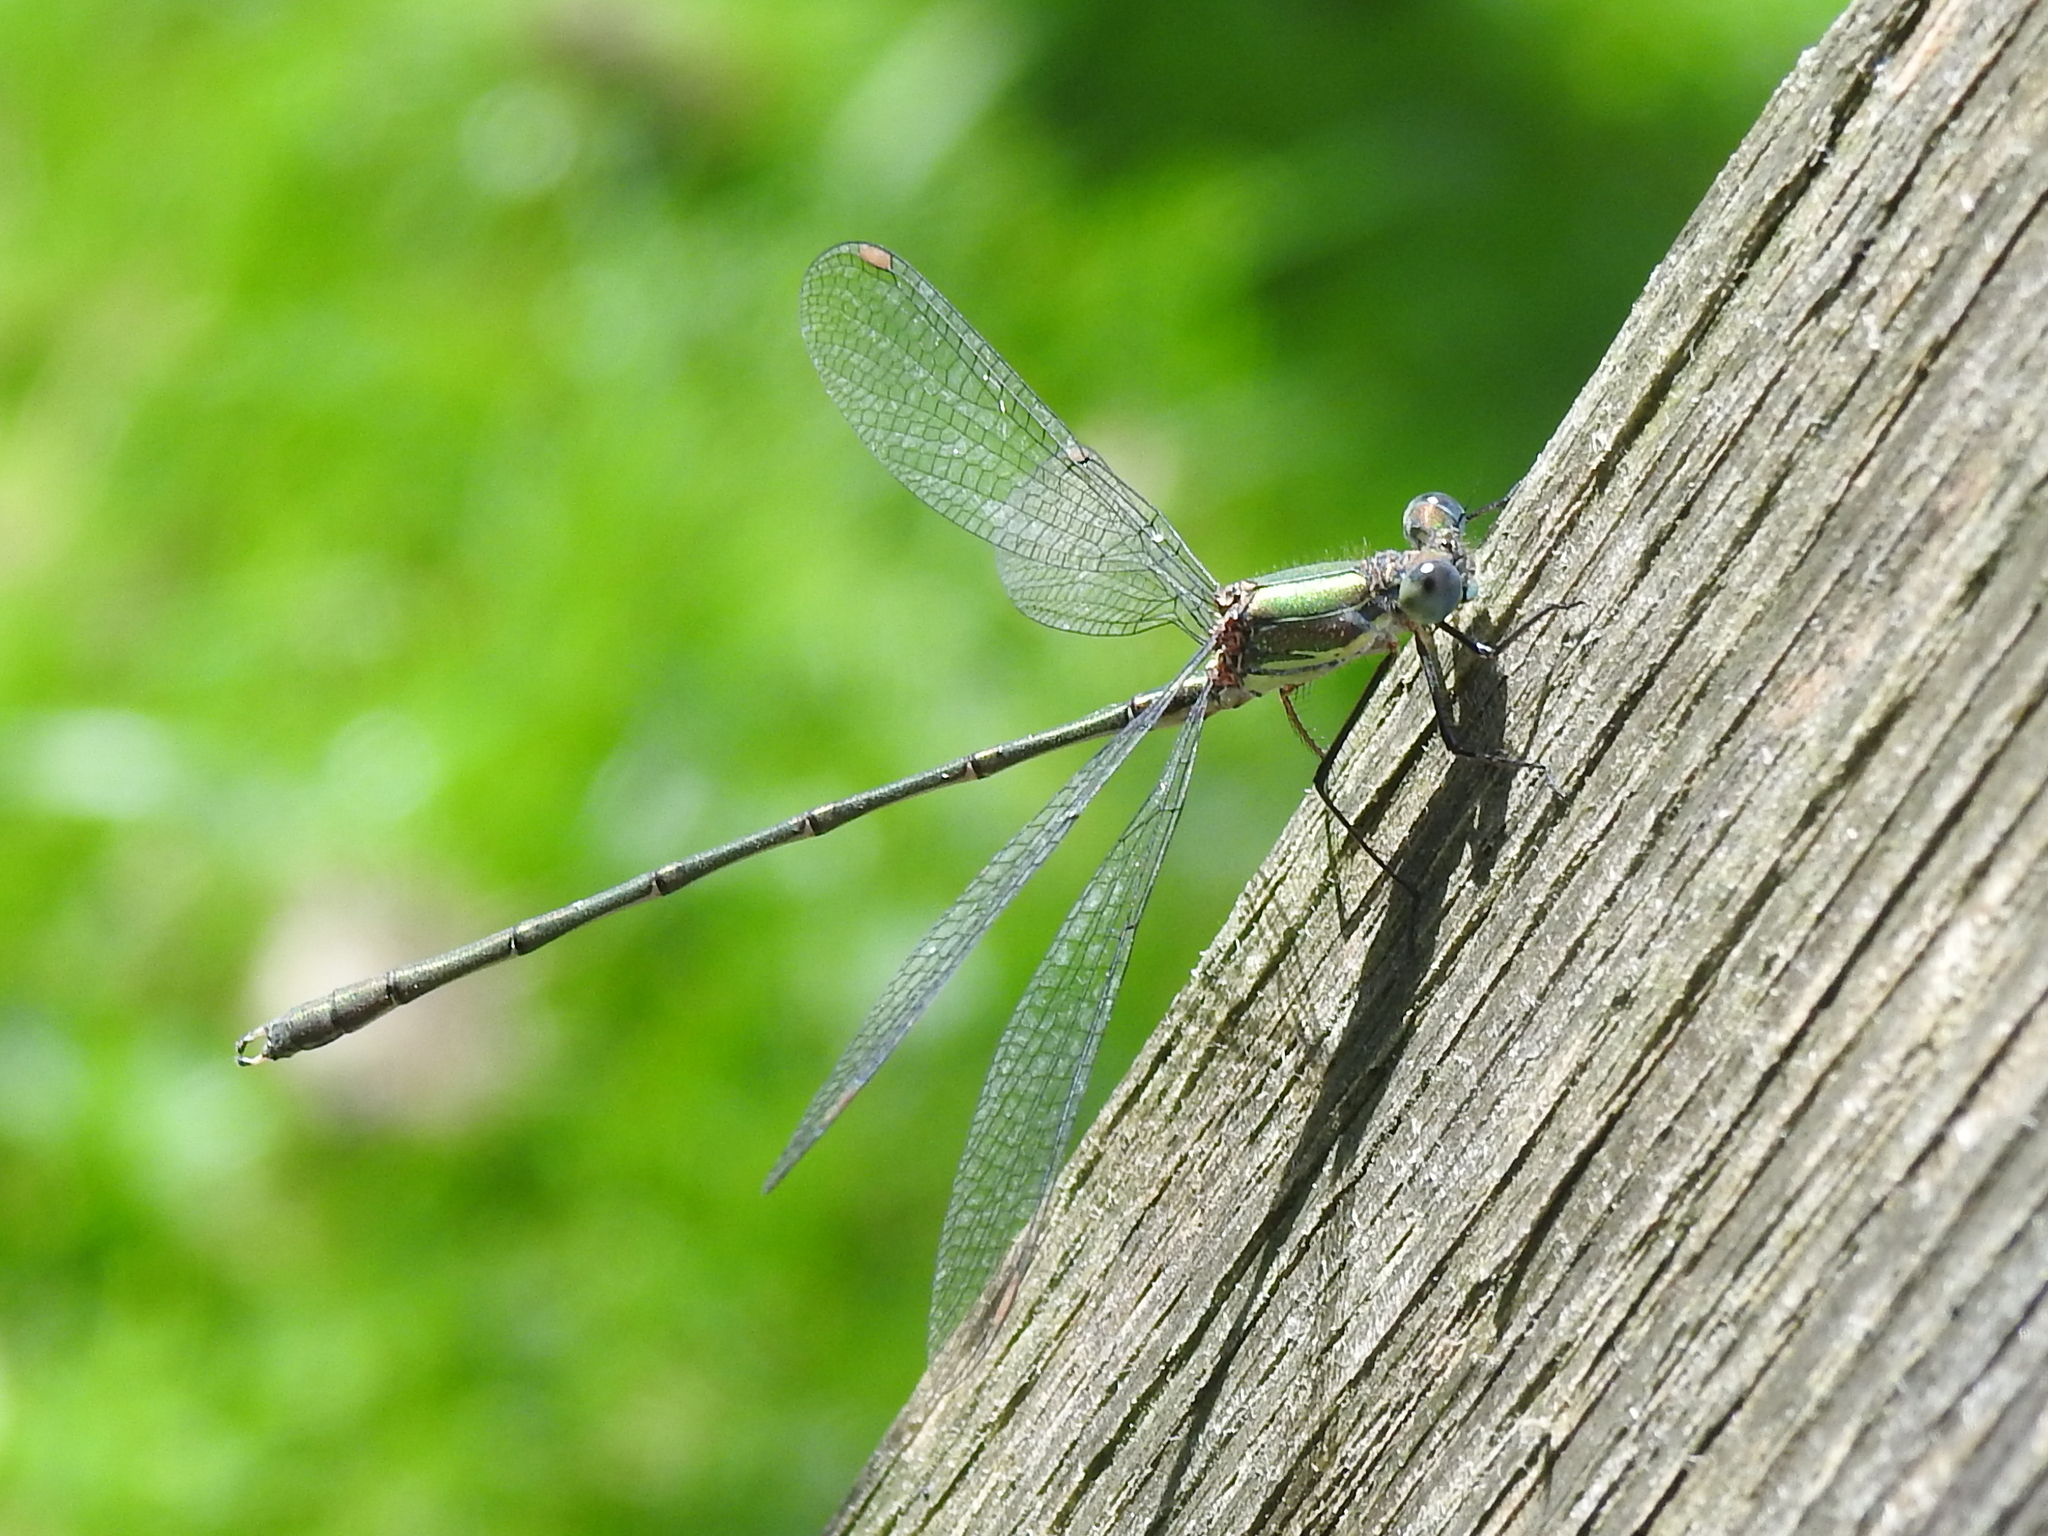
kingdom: Animalia
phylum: Arthropoda
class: Insecta
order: Odonata
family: Lestidae
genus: Chalcolestes
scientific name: Chalcolestes viridis
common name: Green emerald damselfly
